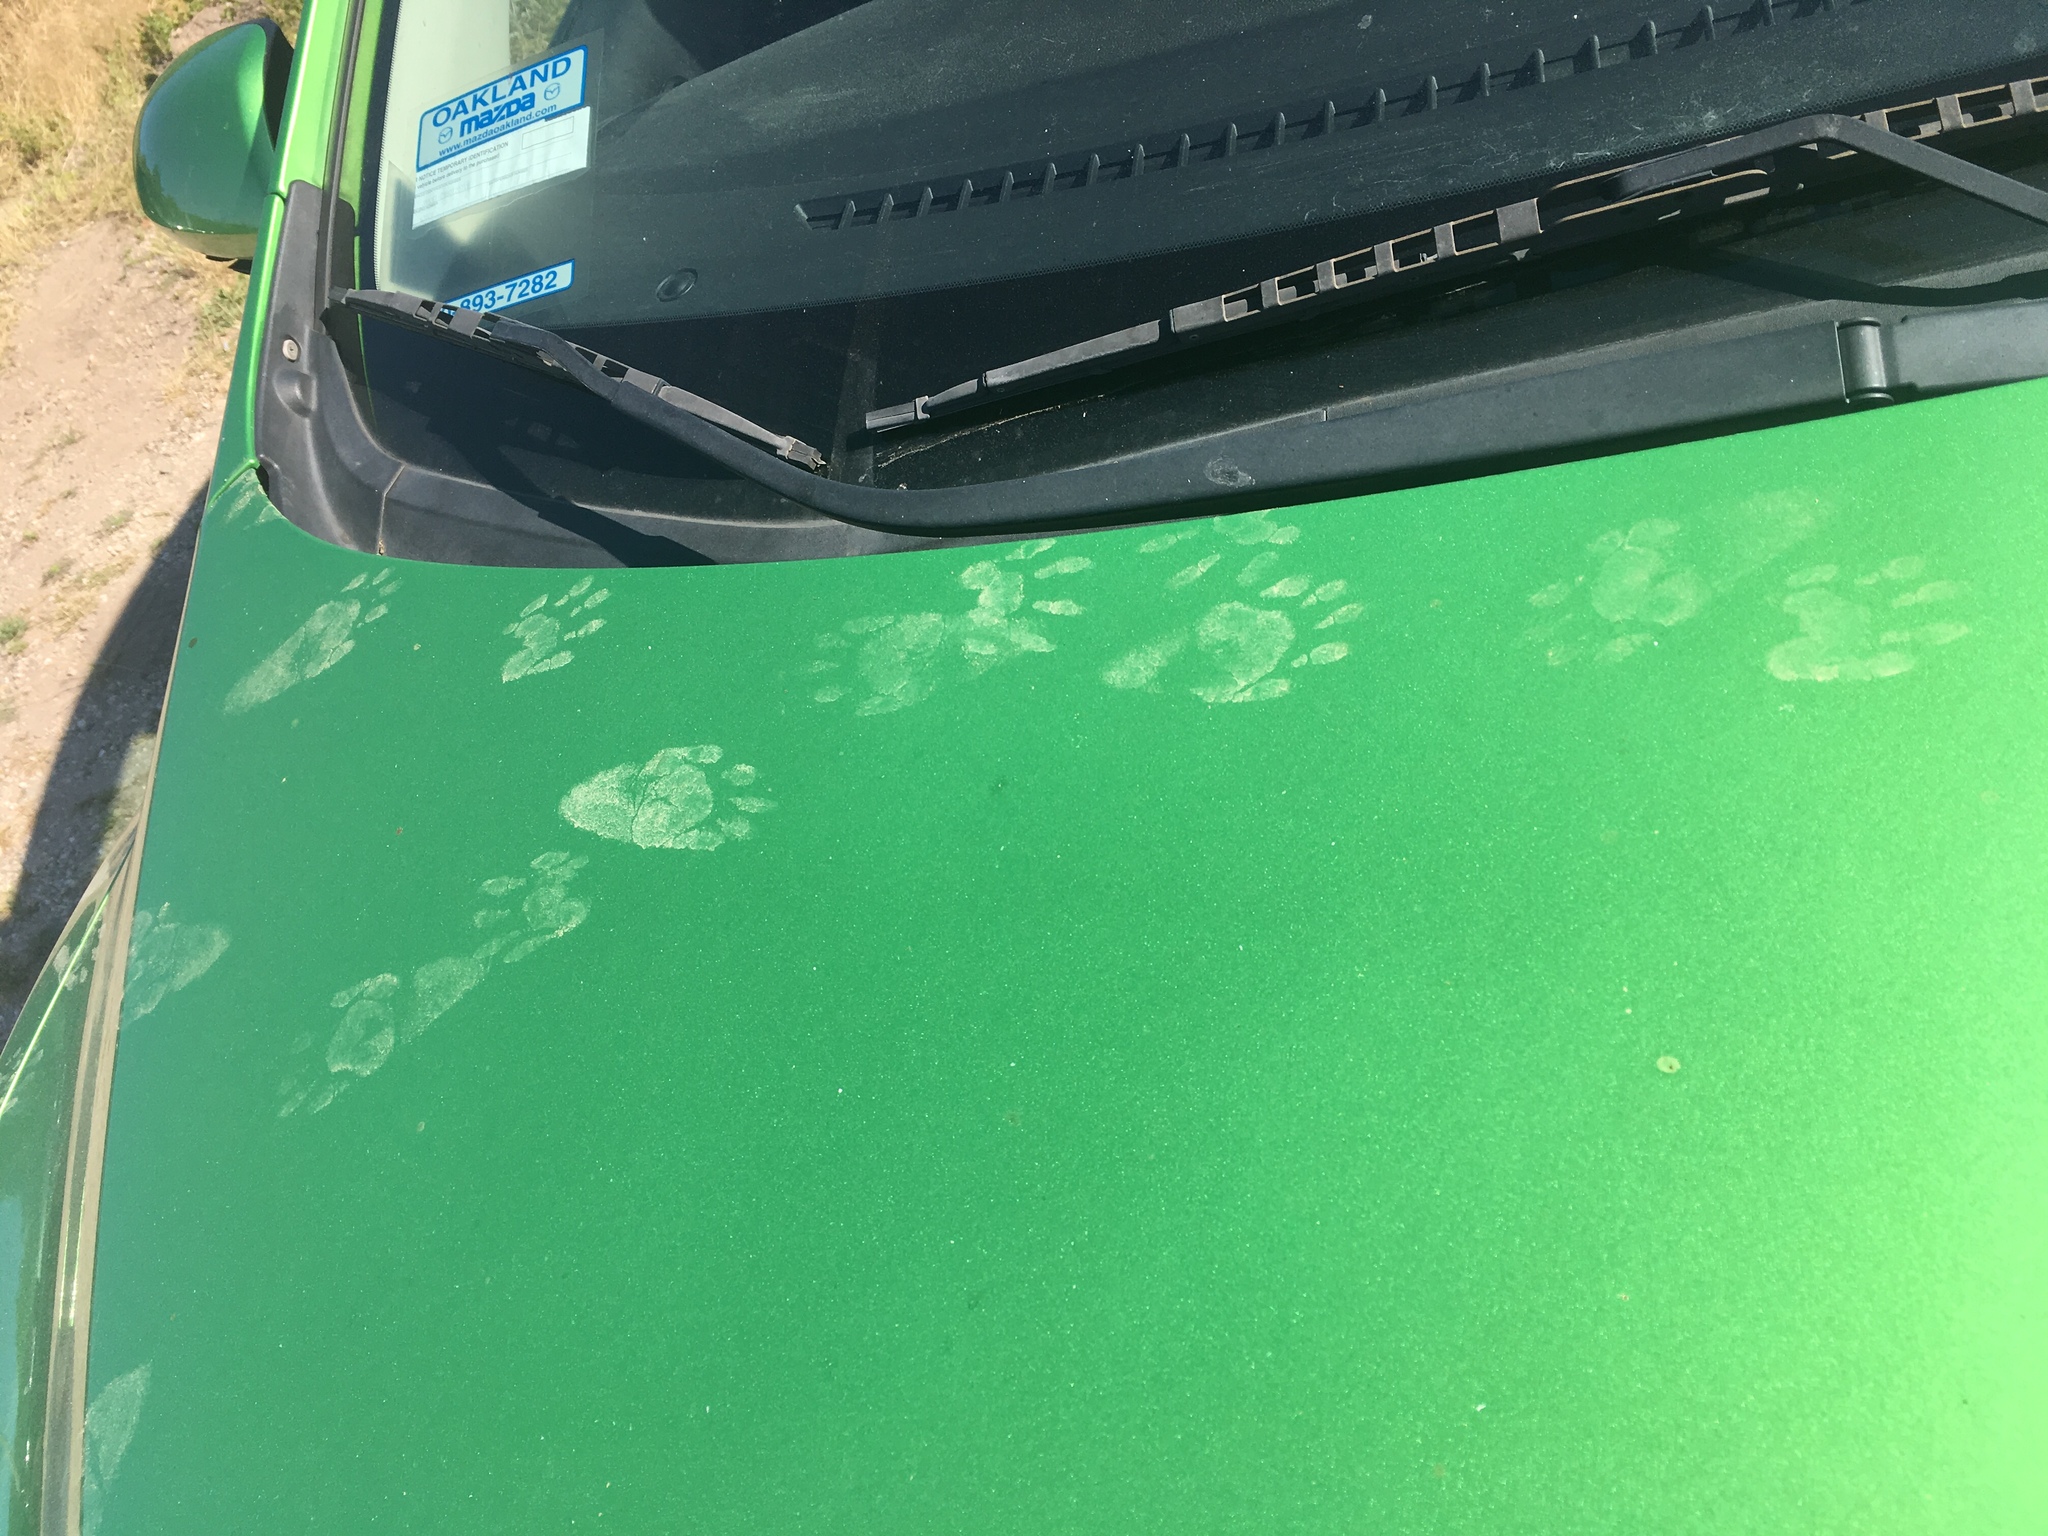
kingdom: Animalia
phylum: Chordata
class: Mammalia
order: Carnivora
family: Procyonidae
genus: Procyon
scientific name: Procyon lotor
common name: Raccoon
